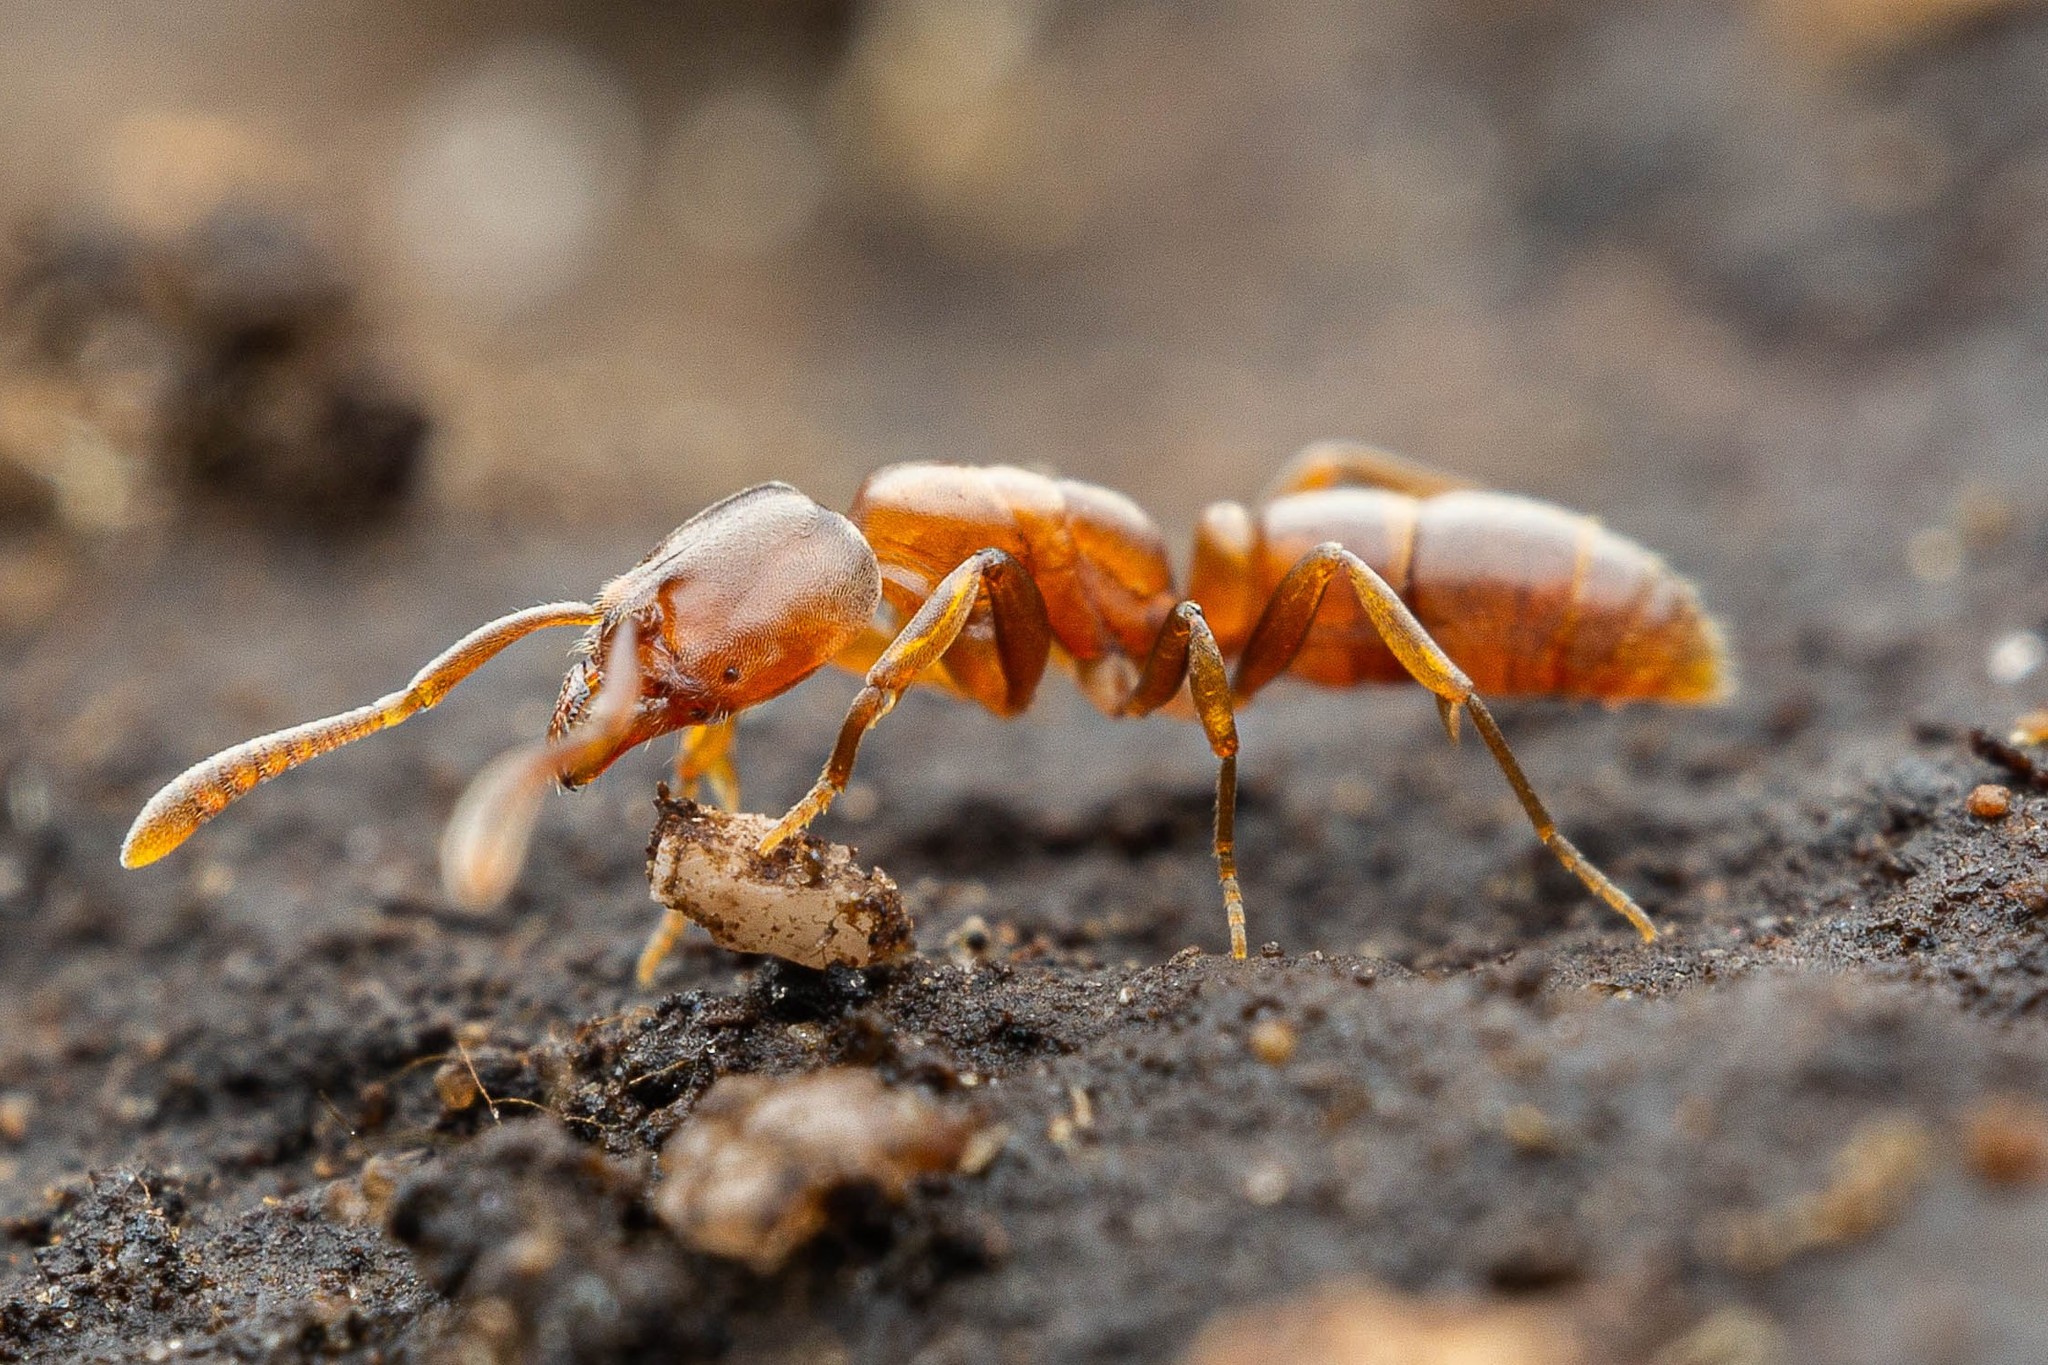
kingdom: Animalia
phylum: Arthropoda
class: Insecta
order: Hymenoptera
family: Formicidae
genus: Hypoponera
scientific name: Hypoponera opacior
